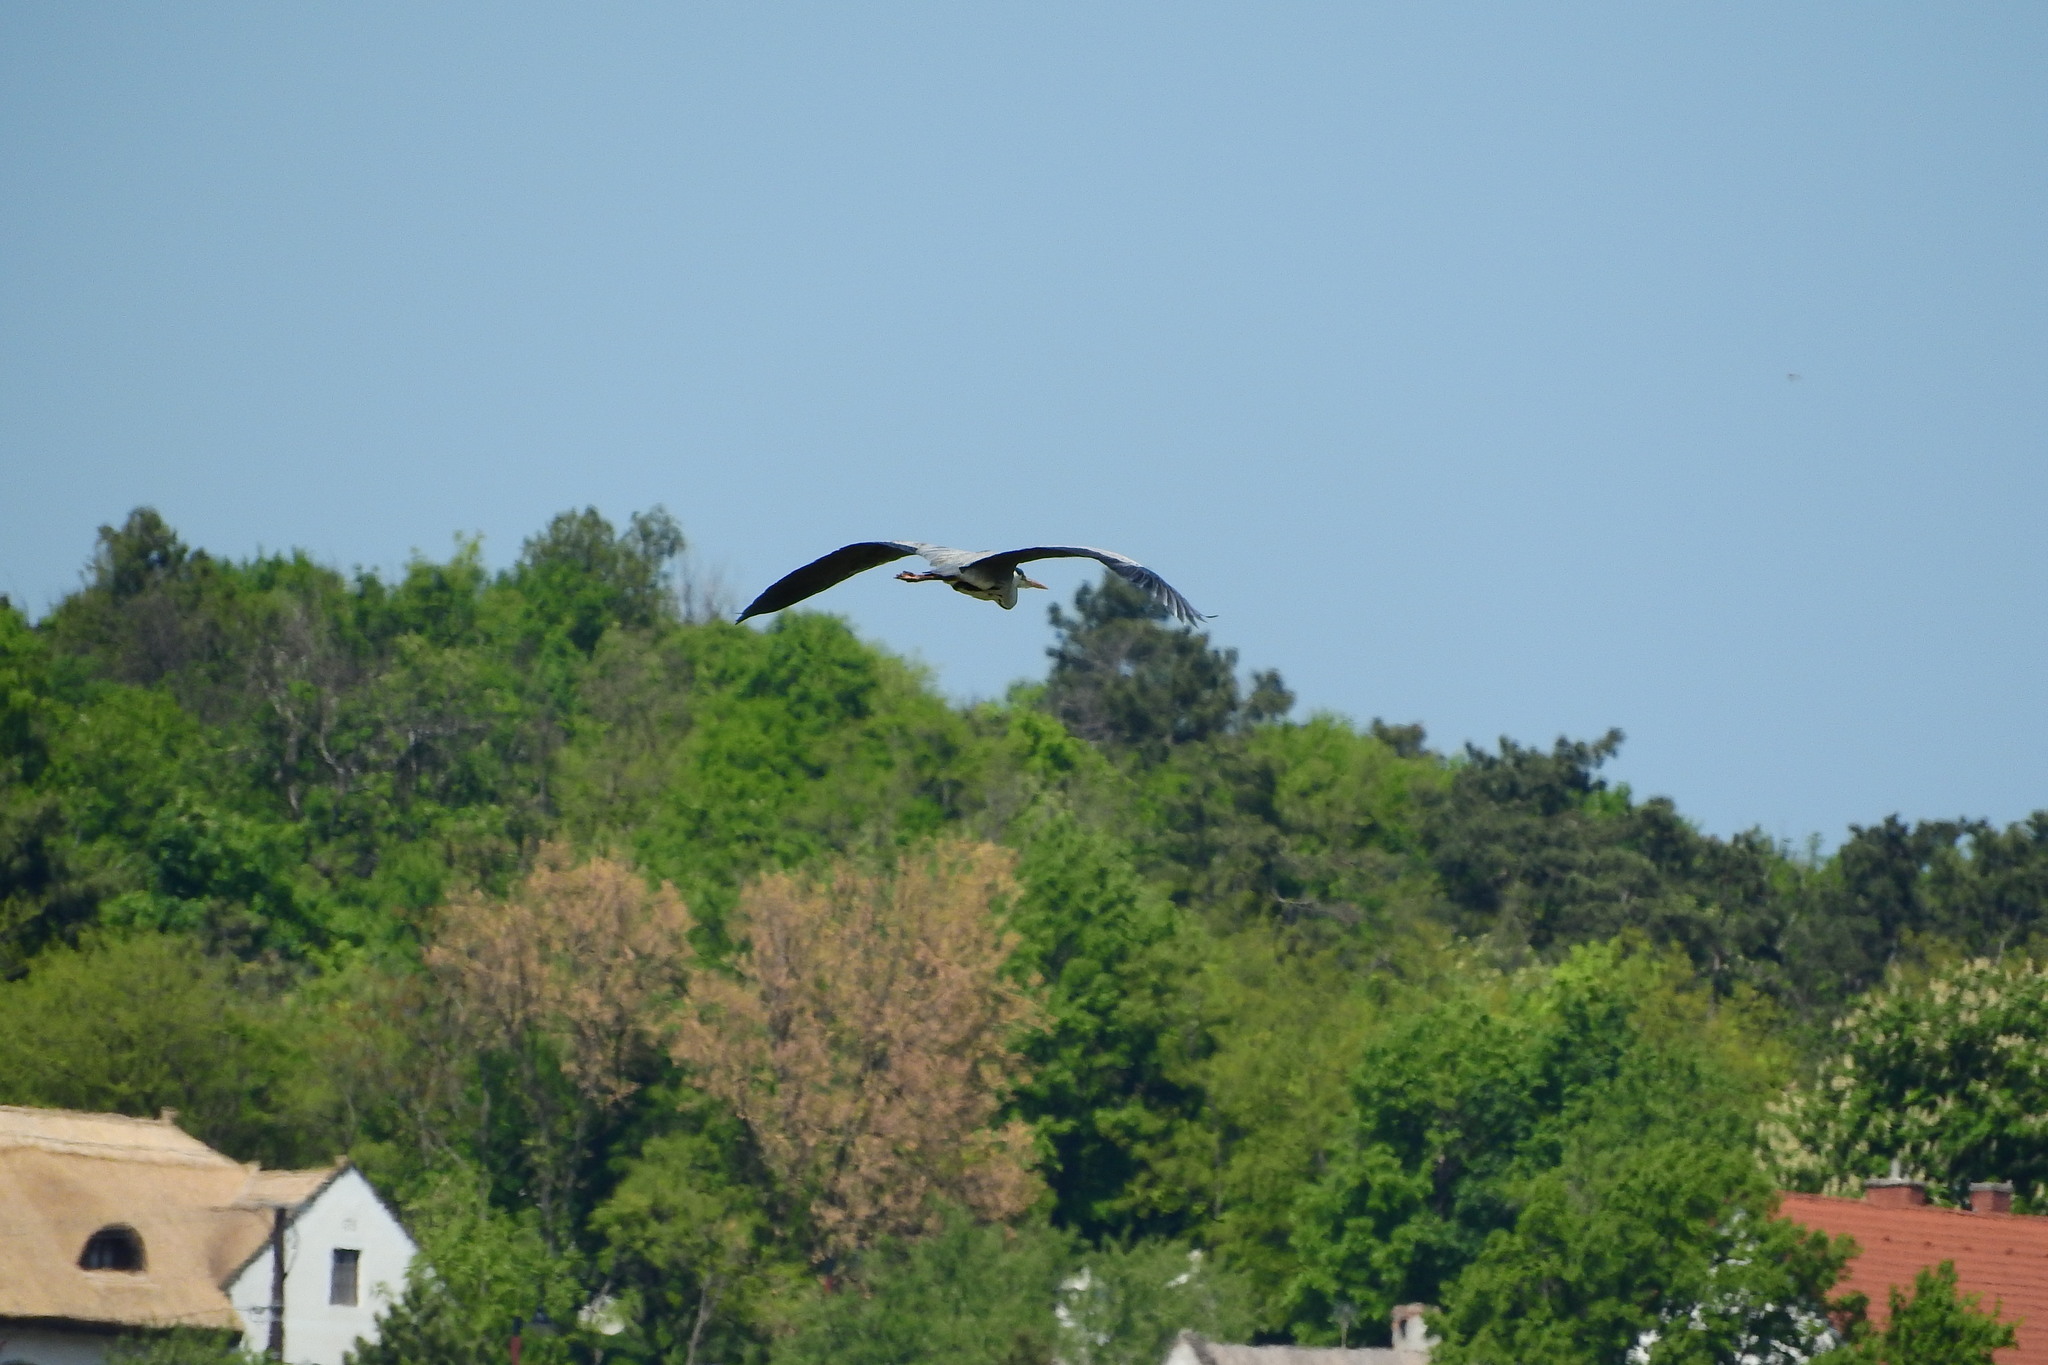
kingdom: Animalia
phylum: Chordata
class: Aves
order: Pelecaniformes
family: Ardeidae
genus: Ardea
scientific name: Ardea cinerea
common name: Grey heron
